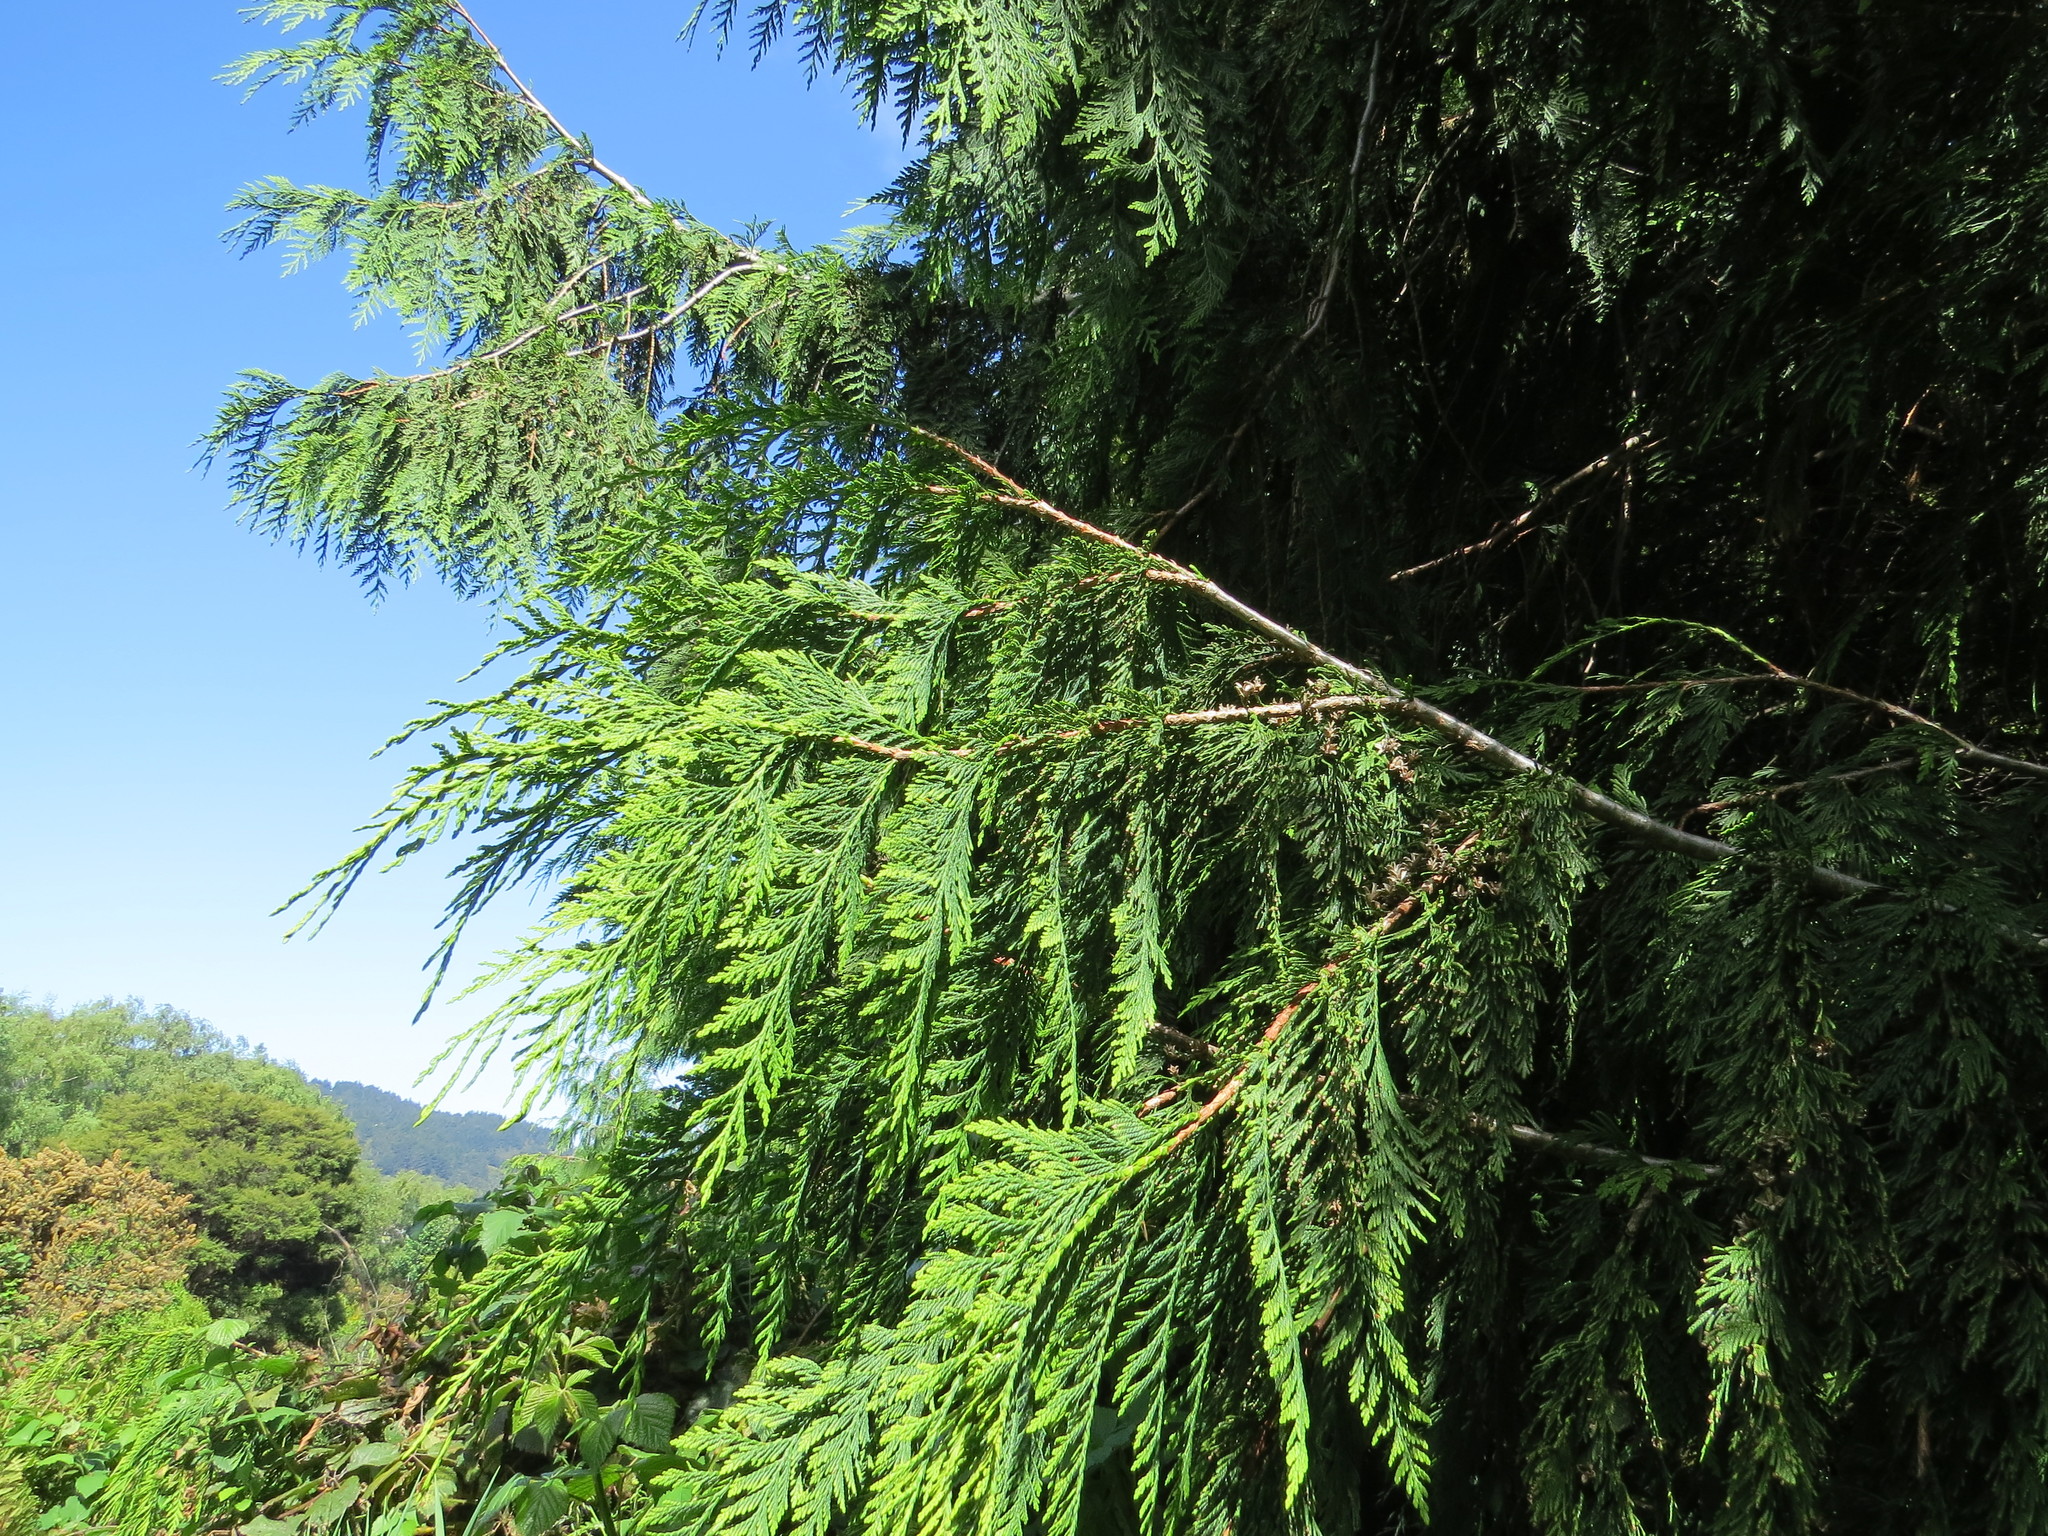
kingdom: Plantae
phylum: Tracheophyta
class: Pinopsida
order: Pinales
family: Cupressaceae
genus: Chamaecyparis
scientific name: Chamaecyparis lawsoniana
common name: Lawson's cypress
